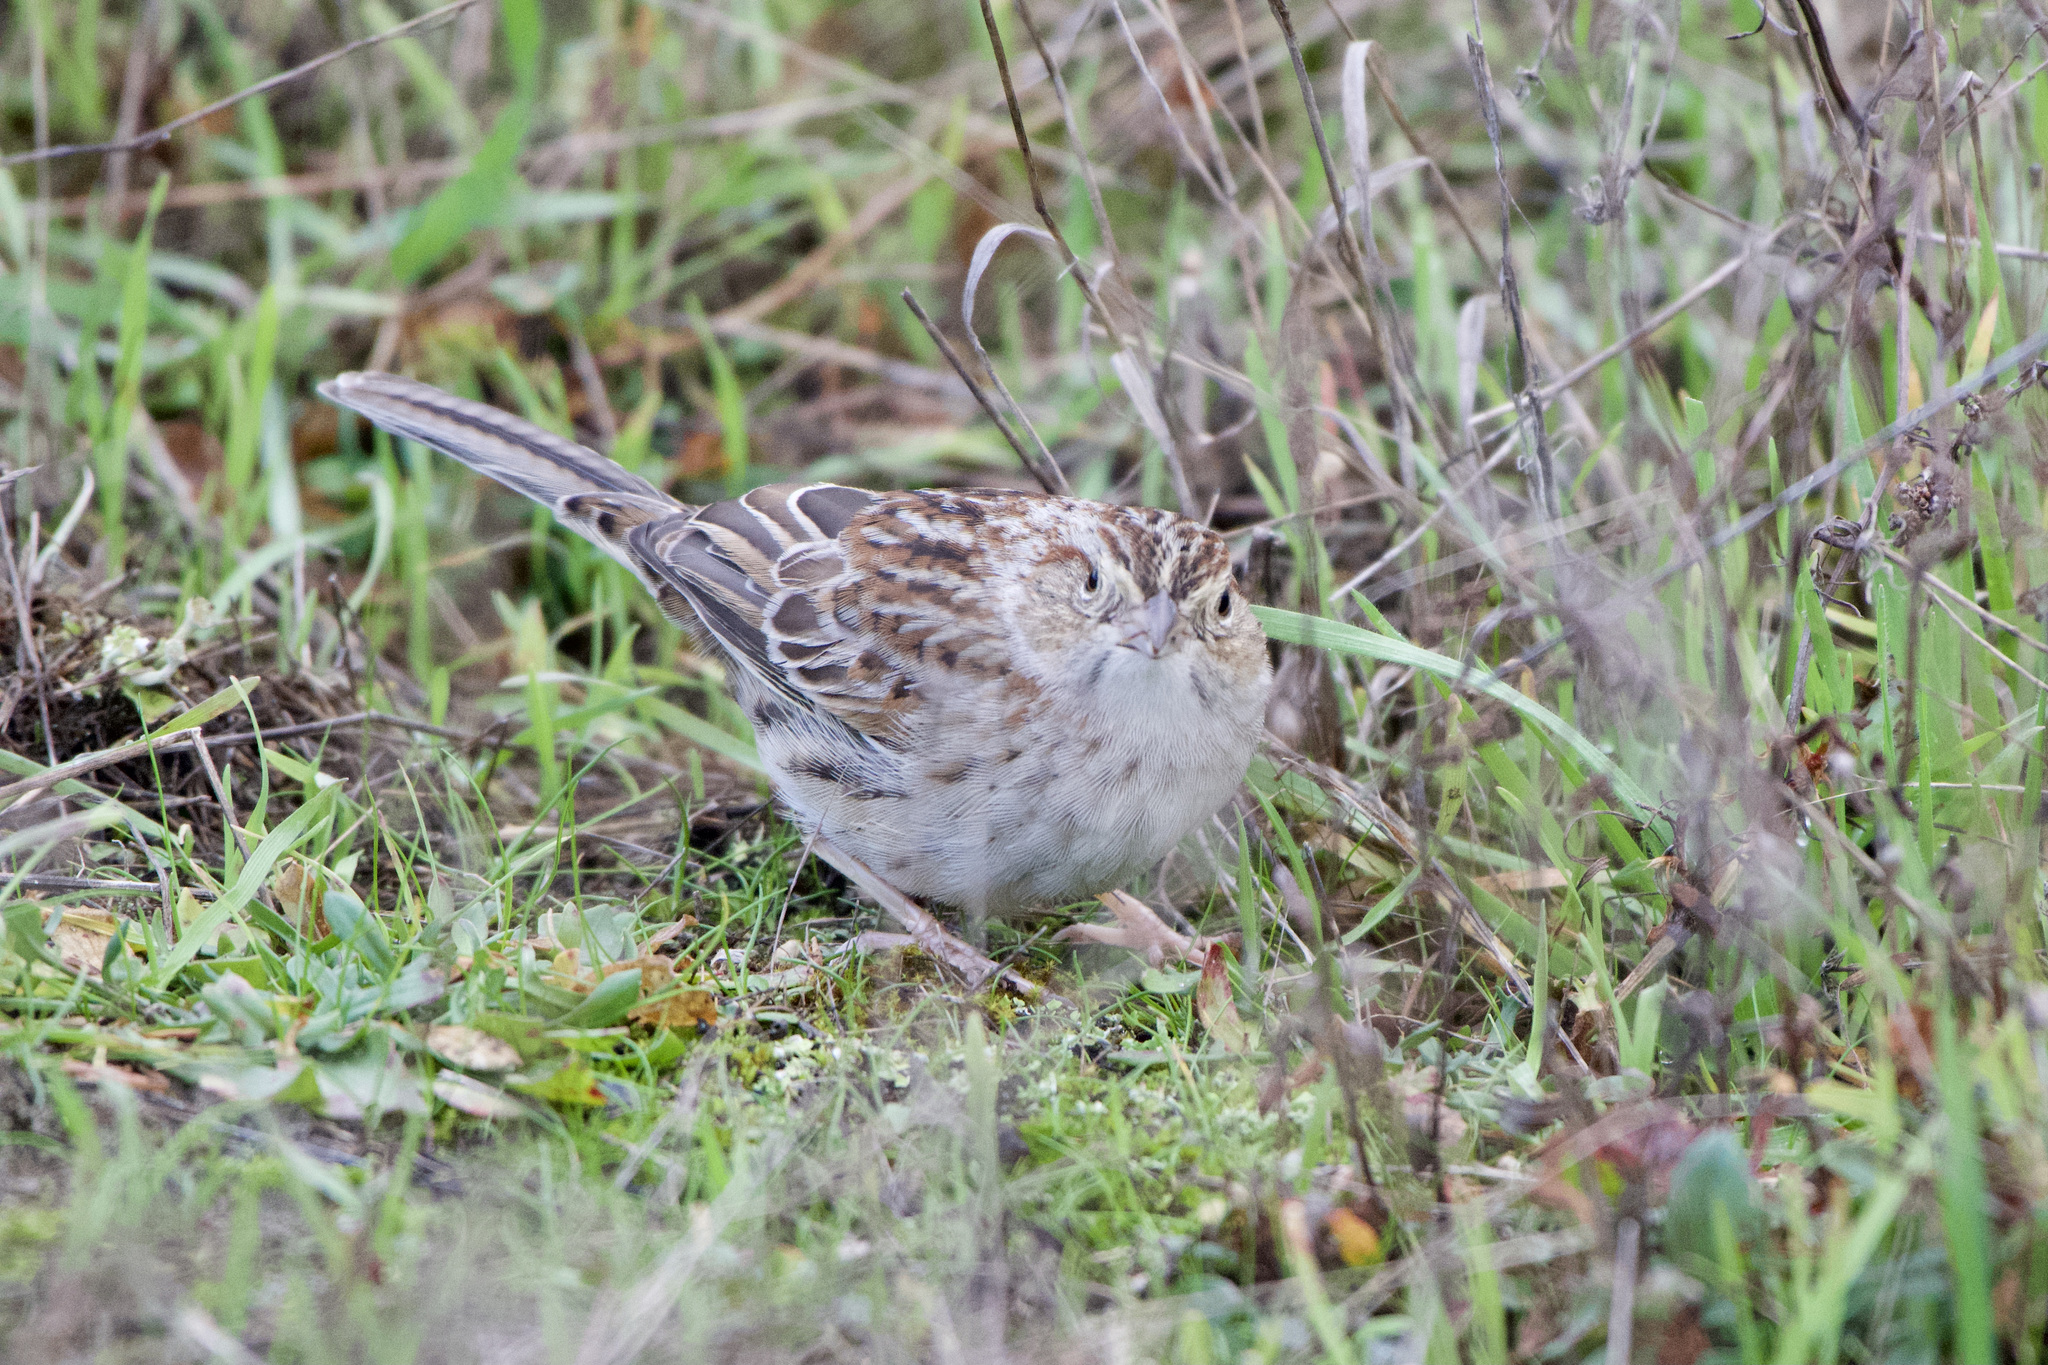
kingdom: Animalia
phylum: Chordata
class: Aves
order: Passeriformes
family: Passerellidae
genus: Peucaea
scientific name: Peucaea cassinii
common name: Cassin's sparrow
